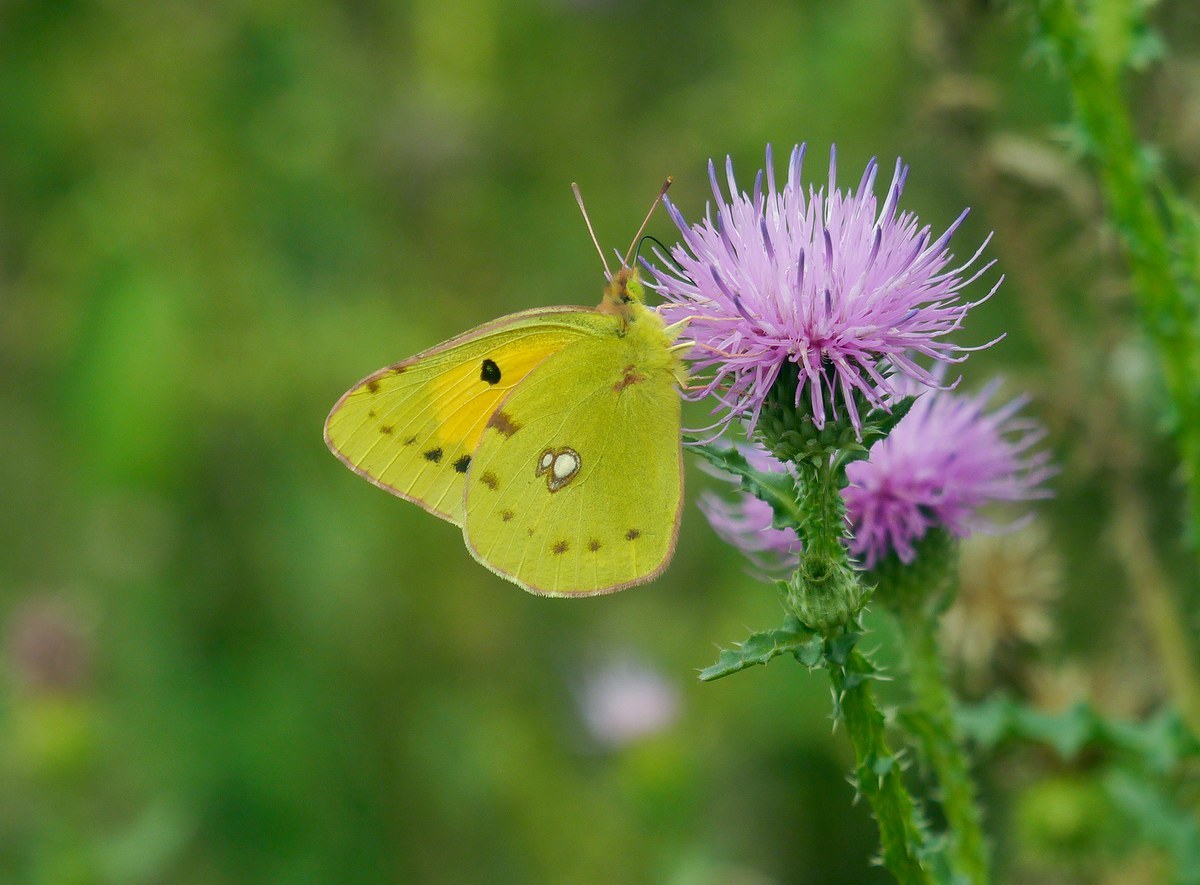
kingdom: Animalia
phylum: Arthropoda
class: Insecta
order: Lepidoptera
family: Pieridae
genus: Colias
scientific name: Colias croceus
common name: Clouded yellow
